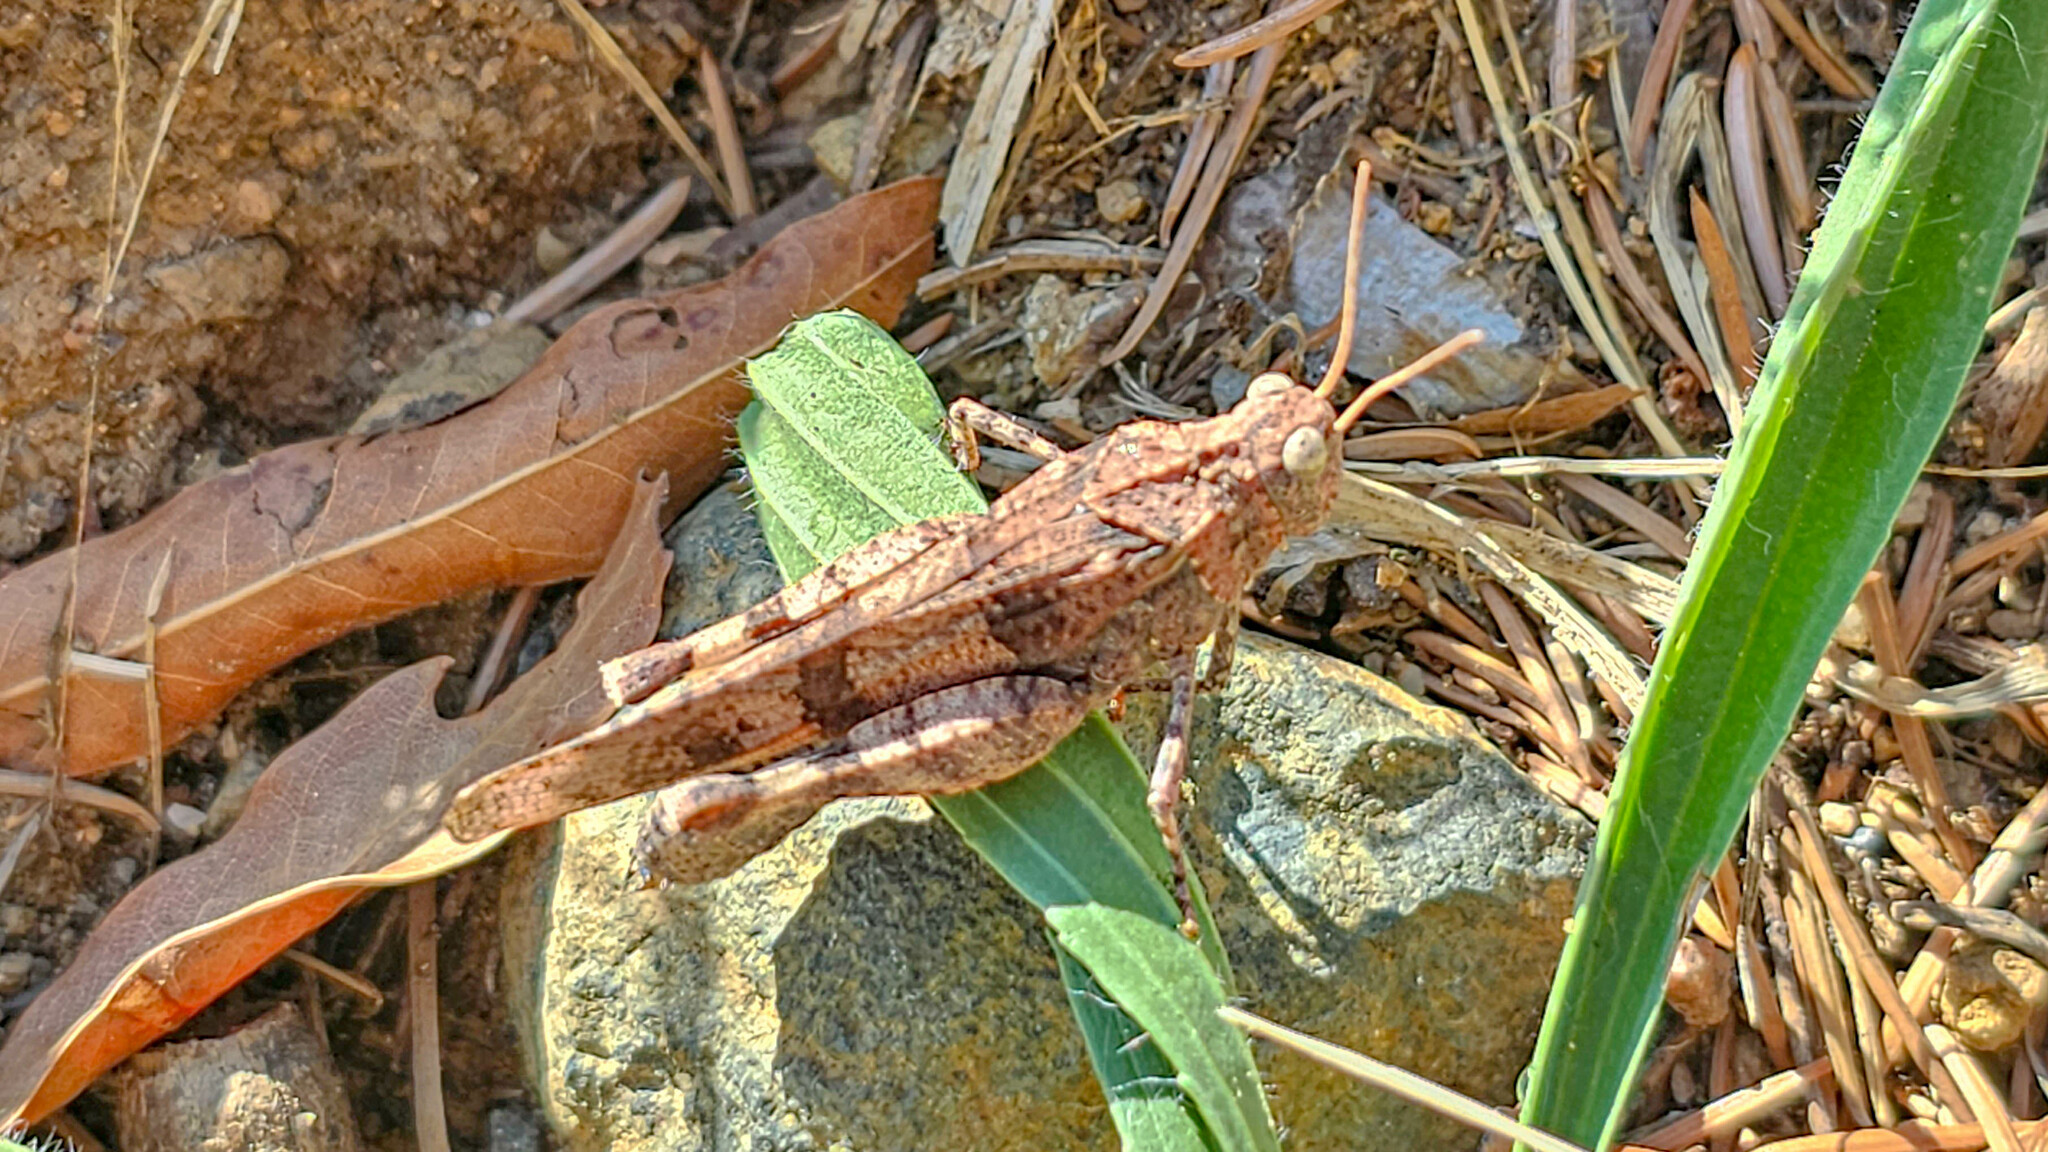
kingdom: Animalia
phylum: Arthropoda
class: Insecta
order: Orthoptera
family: Acrididae
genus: Oedipoda
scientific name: Oedipoda caerulescens
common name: Blue-winged grasshopper
